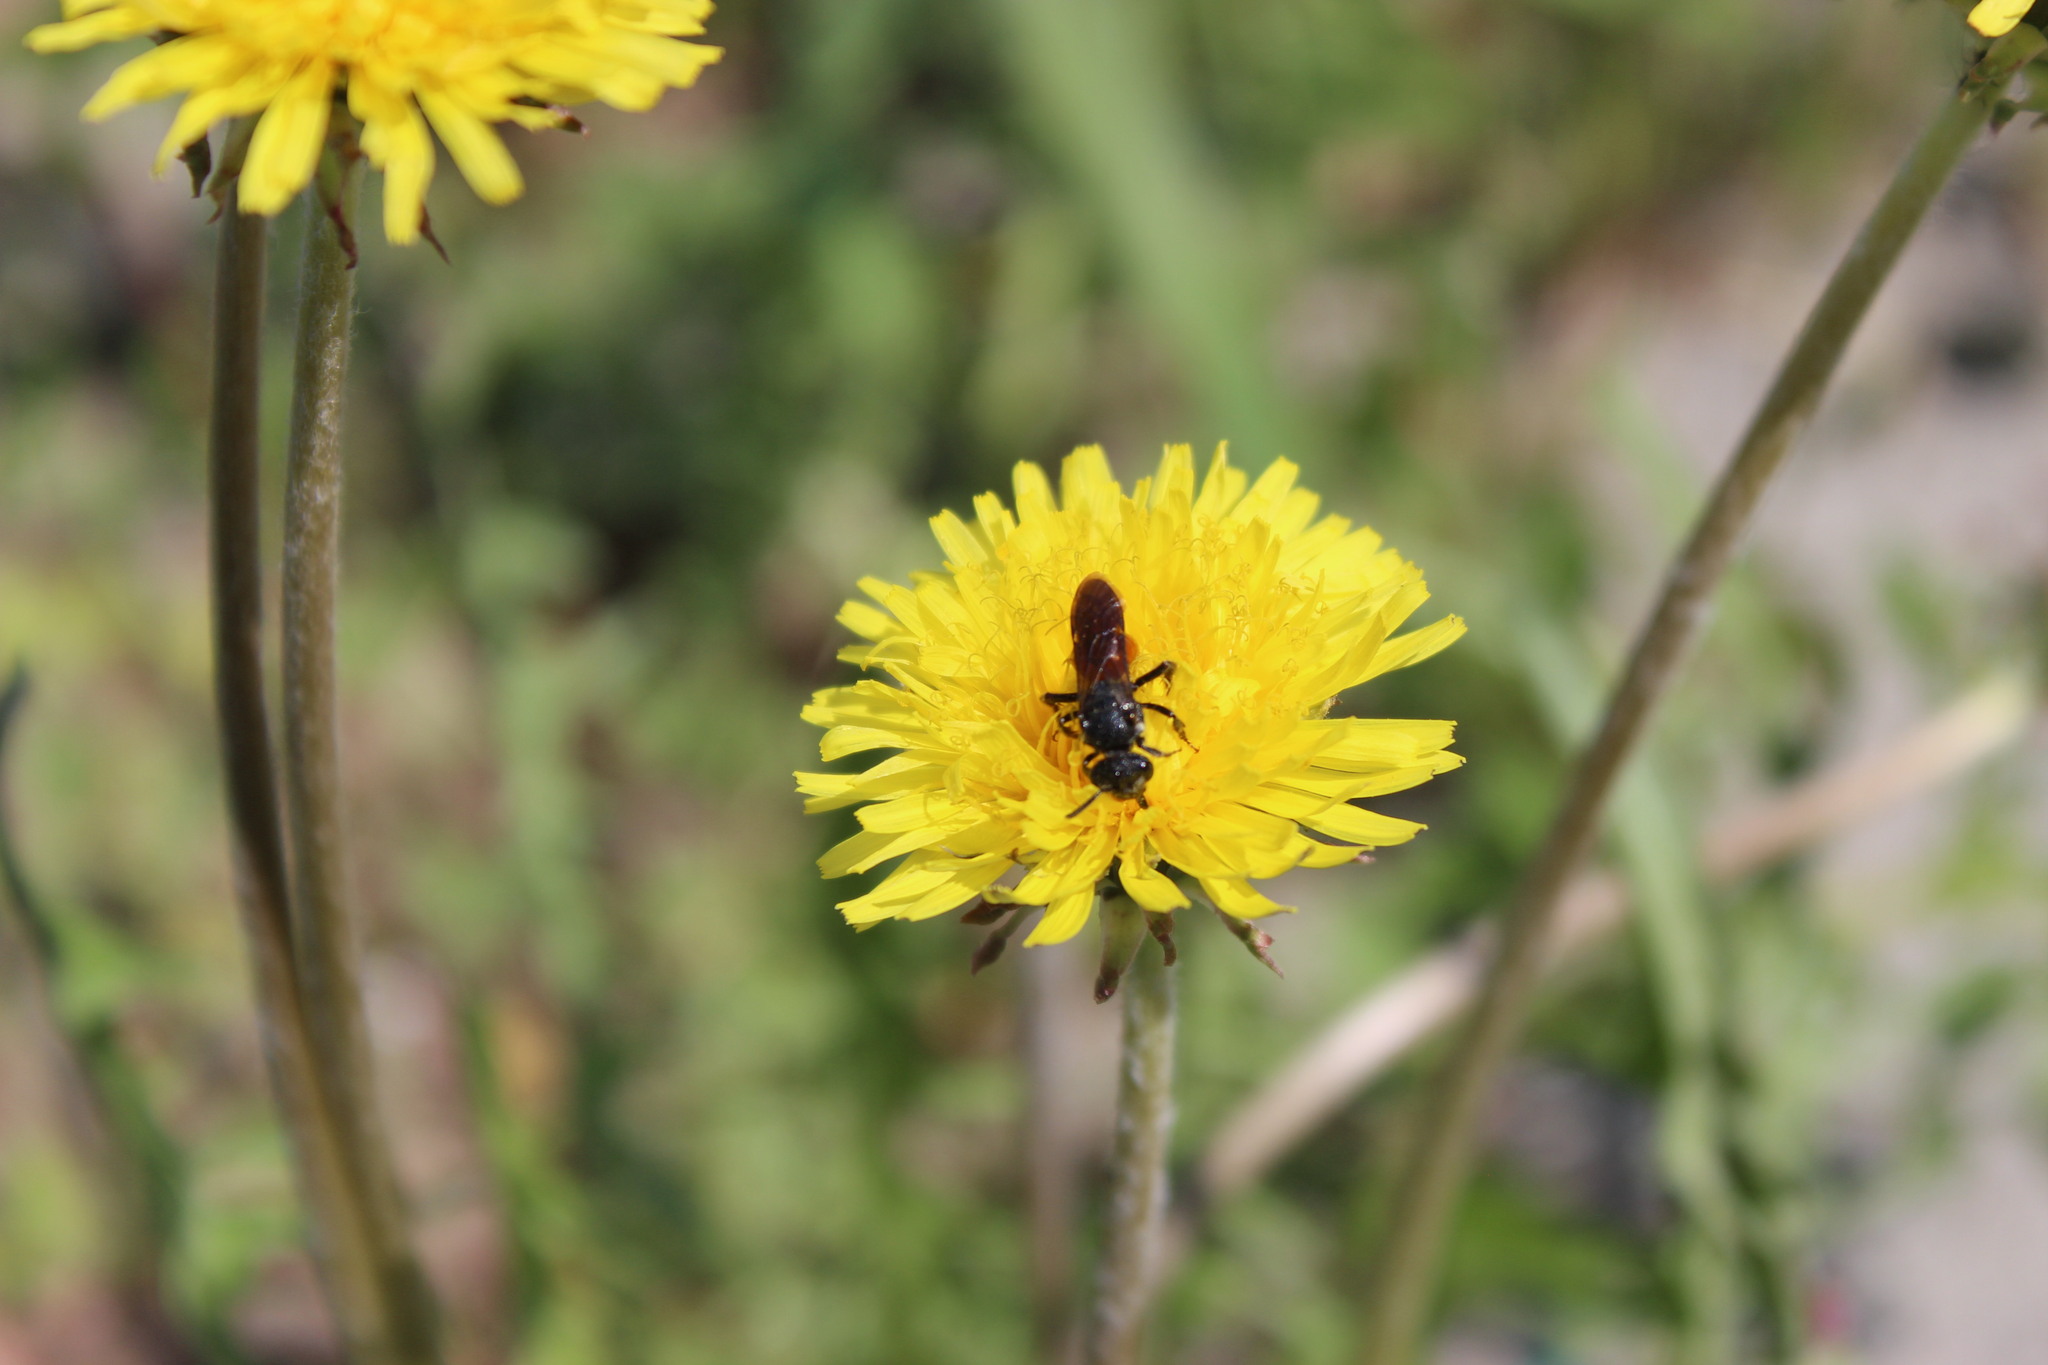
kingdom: Animalia
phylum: Arthropoda
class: Insecta
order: Hymenoptera
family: Halictidae
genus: Sphecodes
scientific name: Sphecodes albilabris
